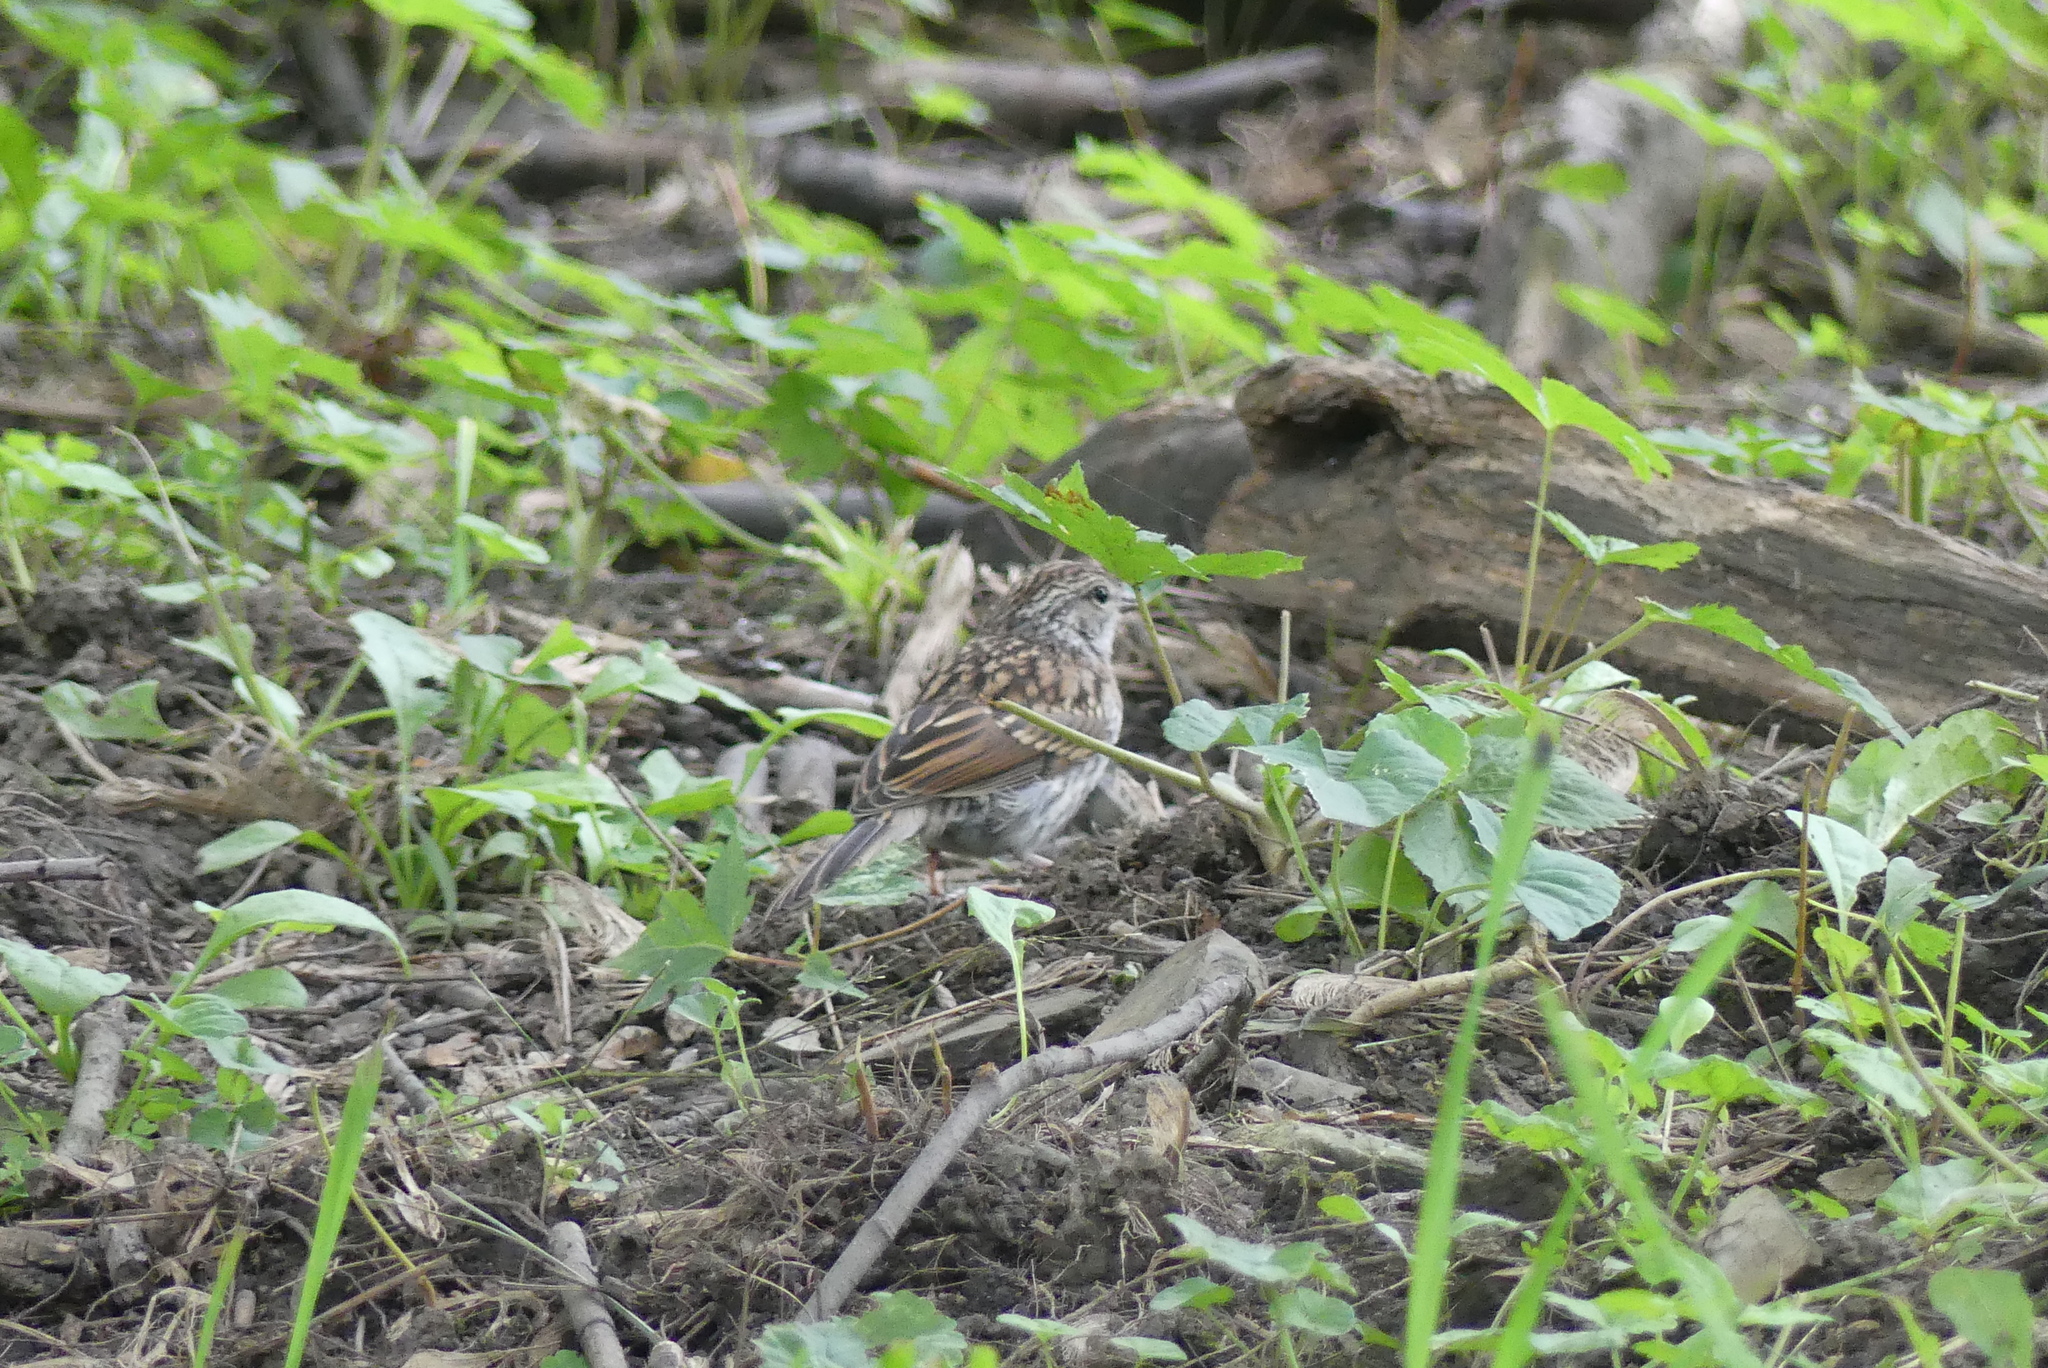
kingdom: Animalia
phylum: Chordata
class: Aves
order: Passeriformes
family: Passerellidae
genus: Spizella
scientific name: Spizella passerina
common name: Chipping sparrow
